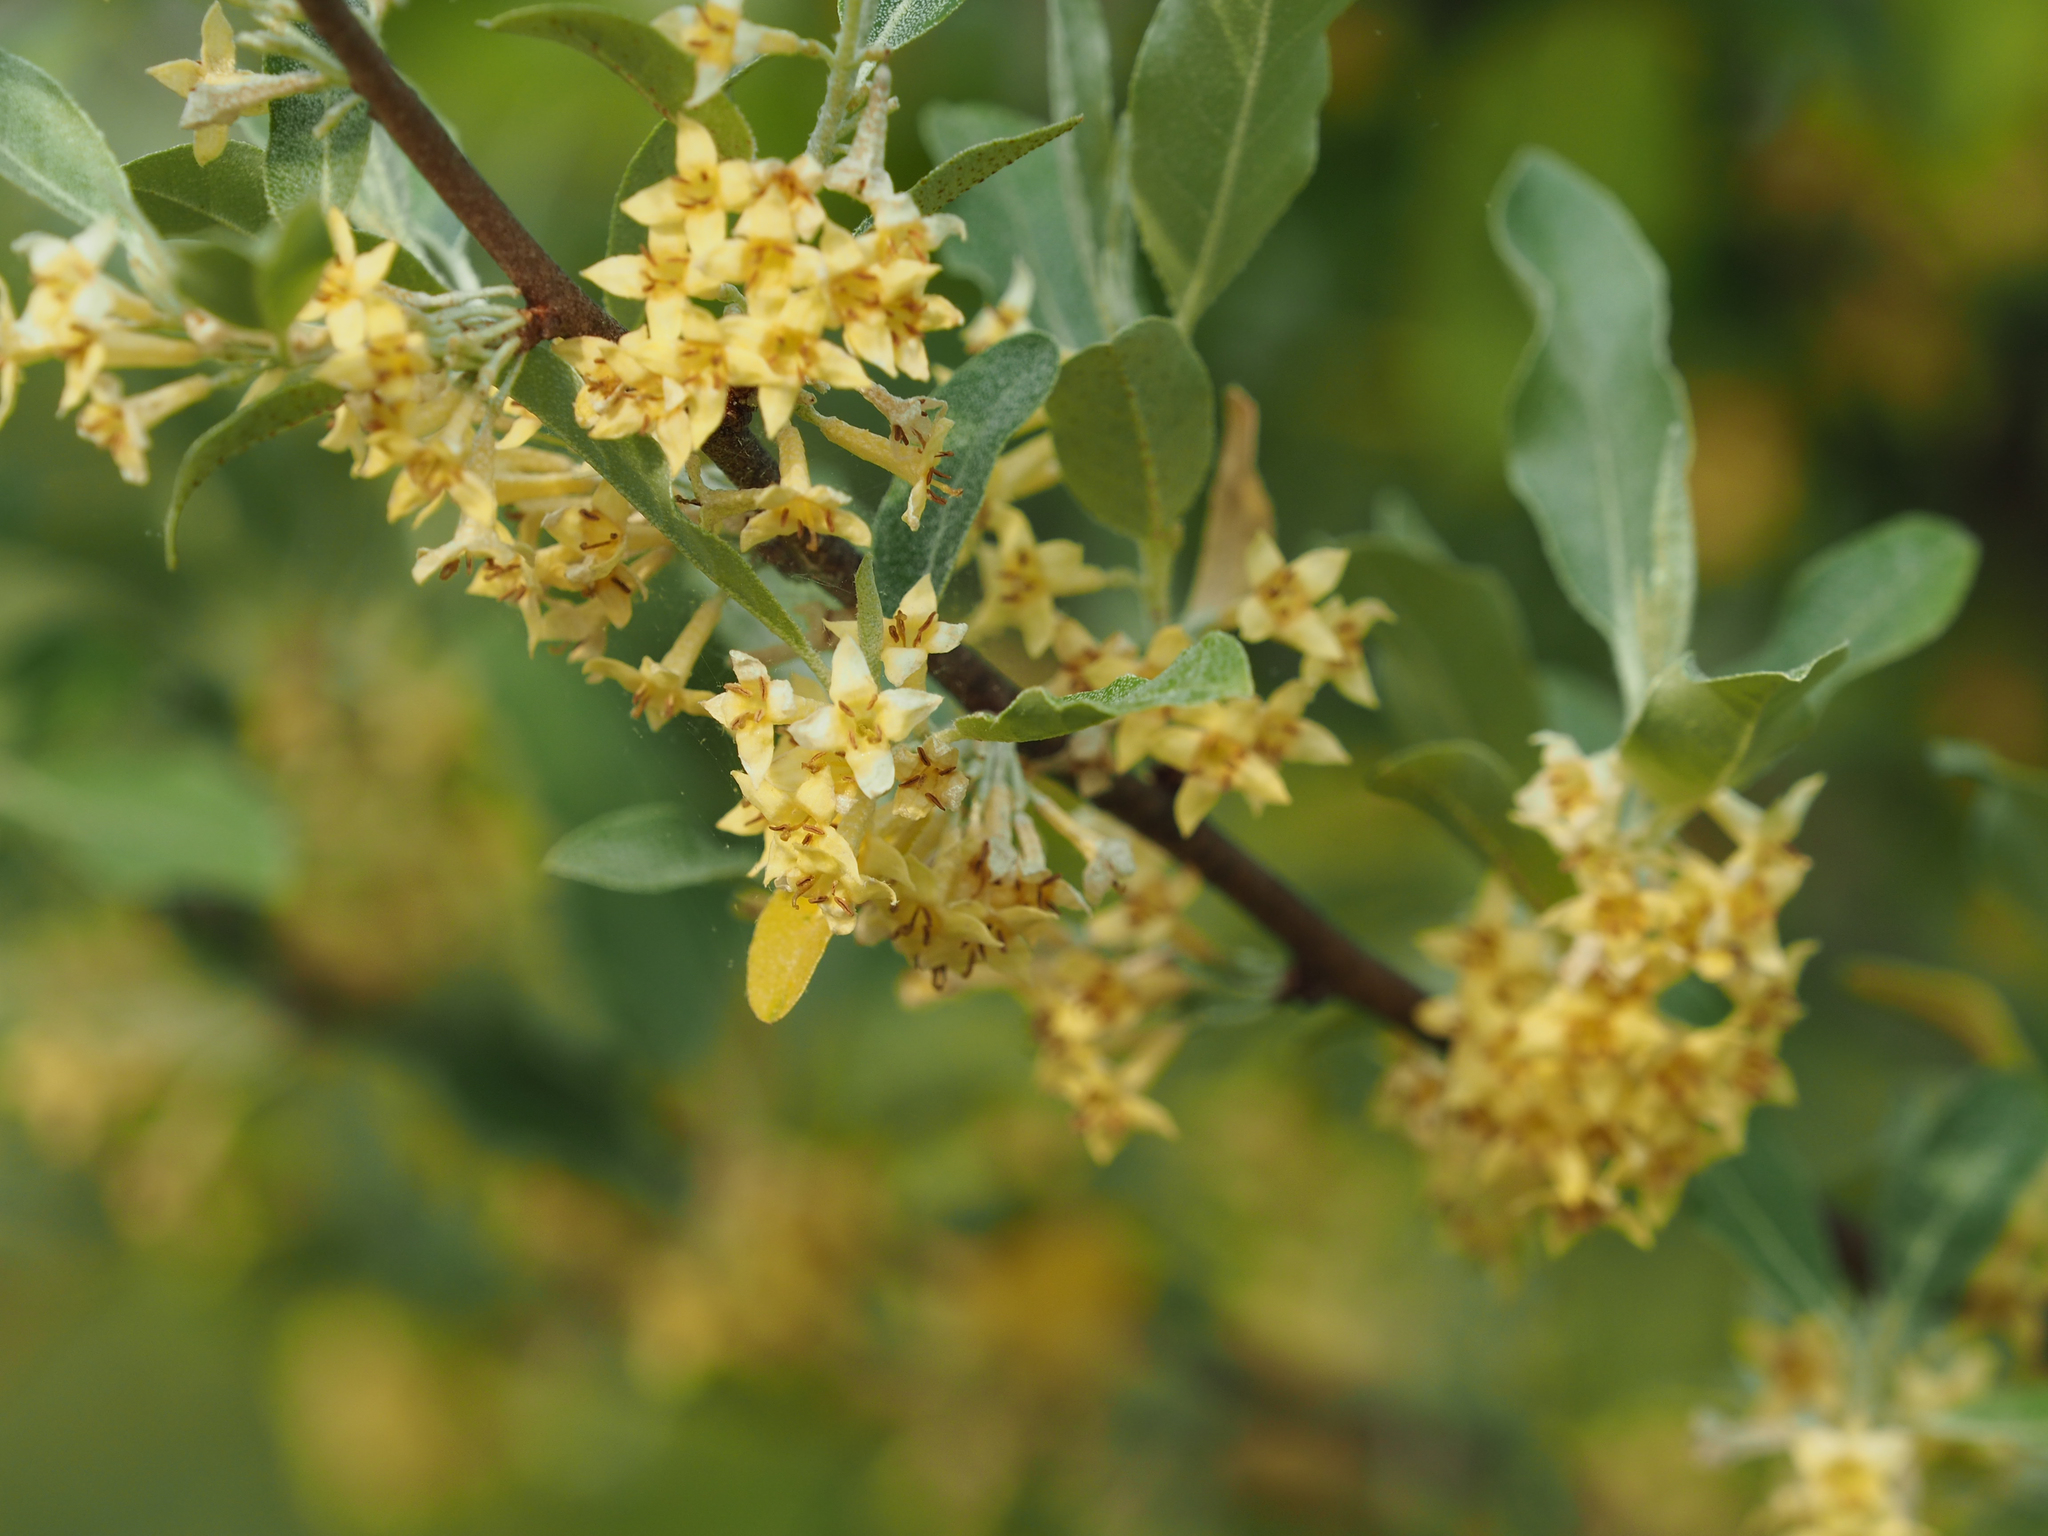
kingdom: Plantae
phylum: Tracheophyta
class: Magnoliopsida
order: Rosales
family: Elaeagnaceae
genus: Elaeagnus
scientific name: Elaeagnus umbellata
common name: Autumn olive
